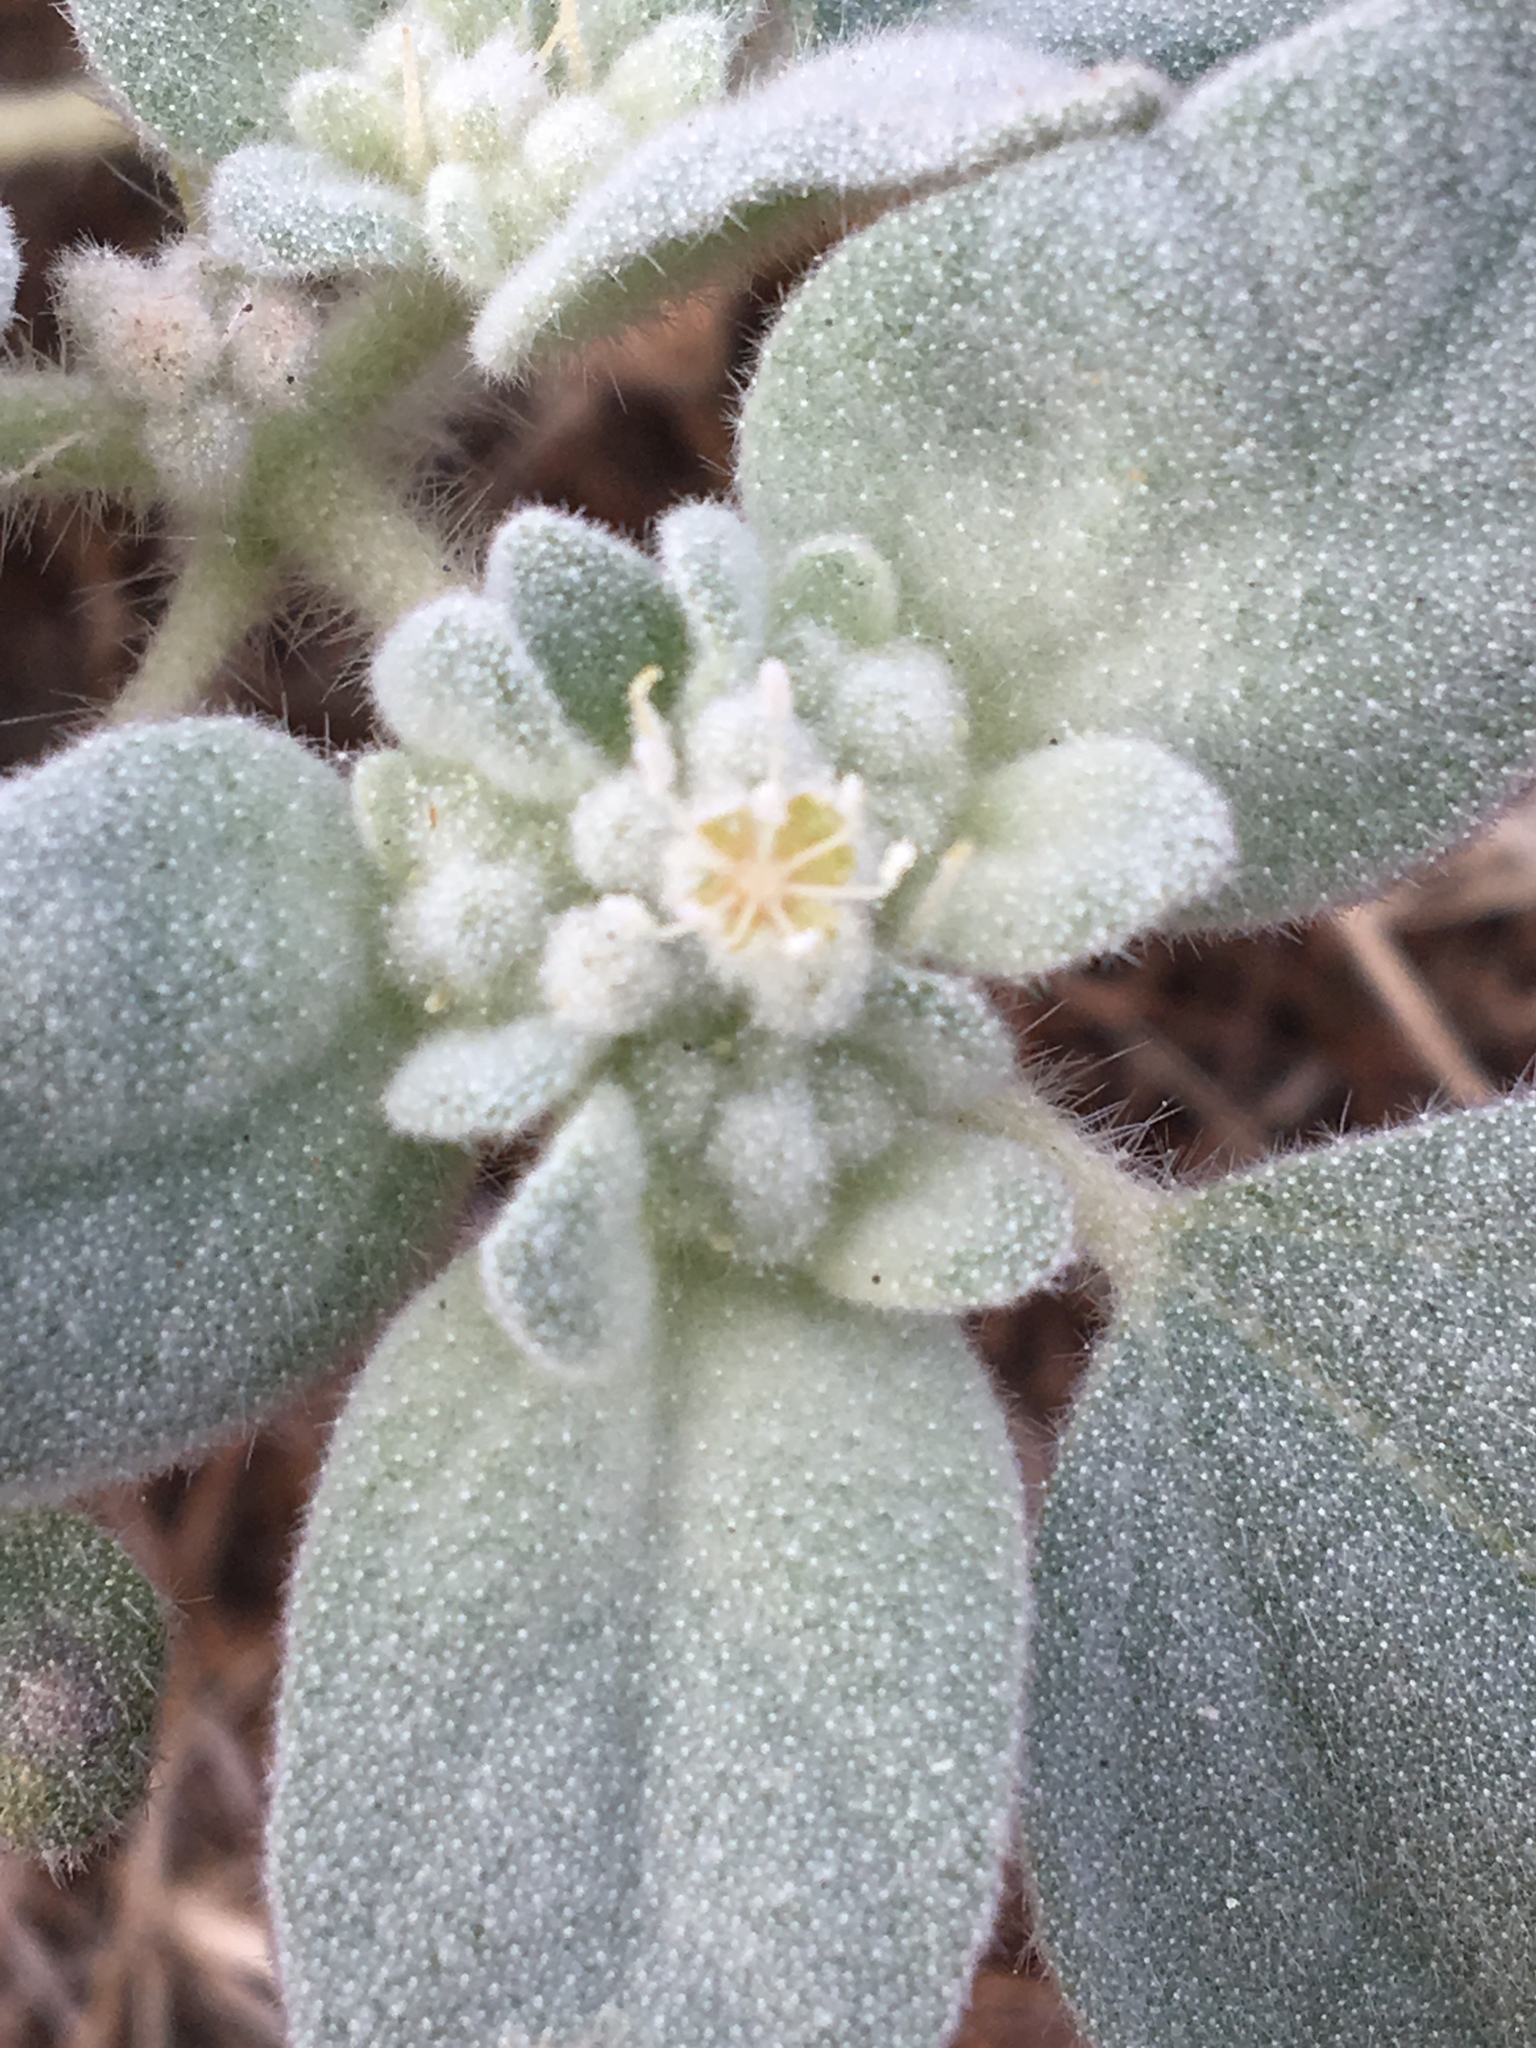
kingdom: Plantae
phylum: Tracheophyta
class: Magnoliopsida
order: Malpighiales
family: Euphorbiaceae
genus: Croton
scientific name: Croton setiger
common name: Dove weed
